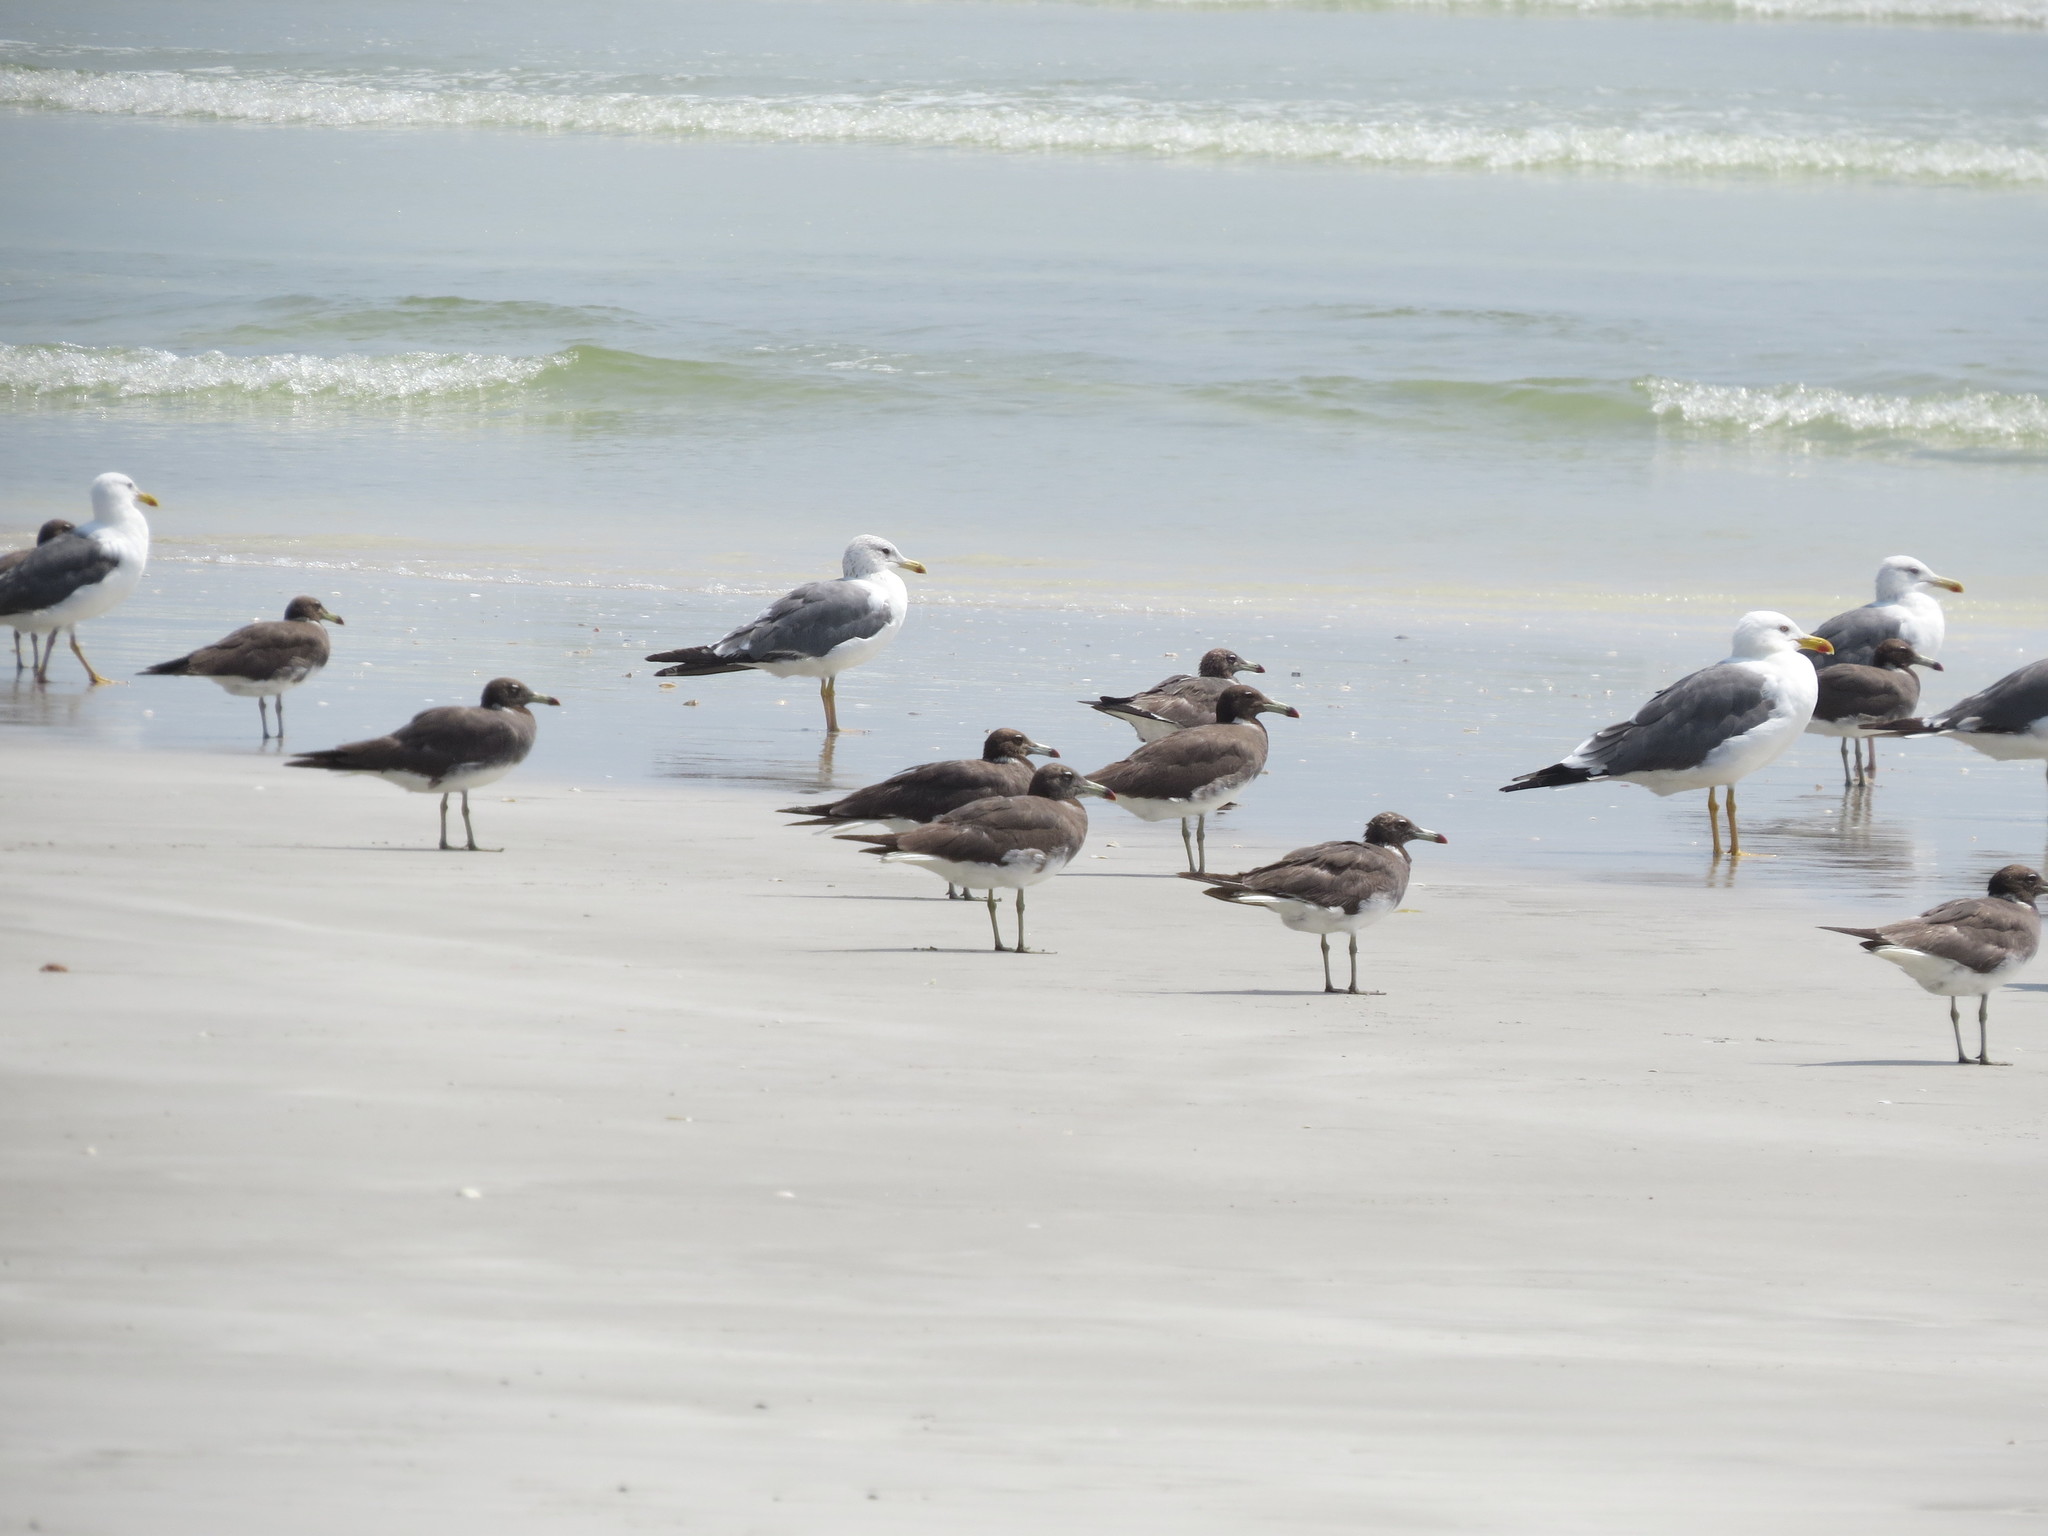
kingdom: Animalia
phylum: Chordata
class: Aves
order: Charadriiformes
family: Laridae
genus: Ichthyaetus
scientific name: Ichthyaetus hemprichii
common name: Sooty gull
